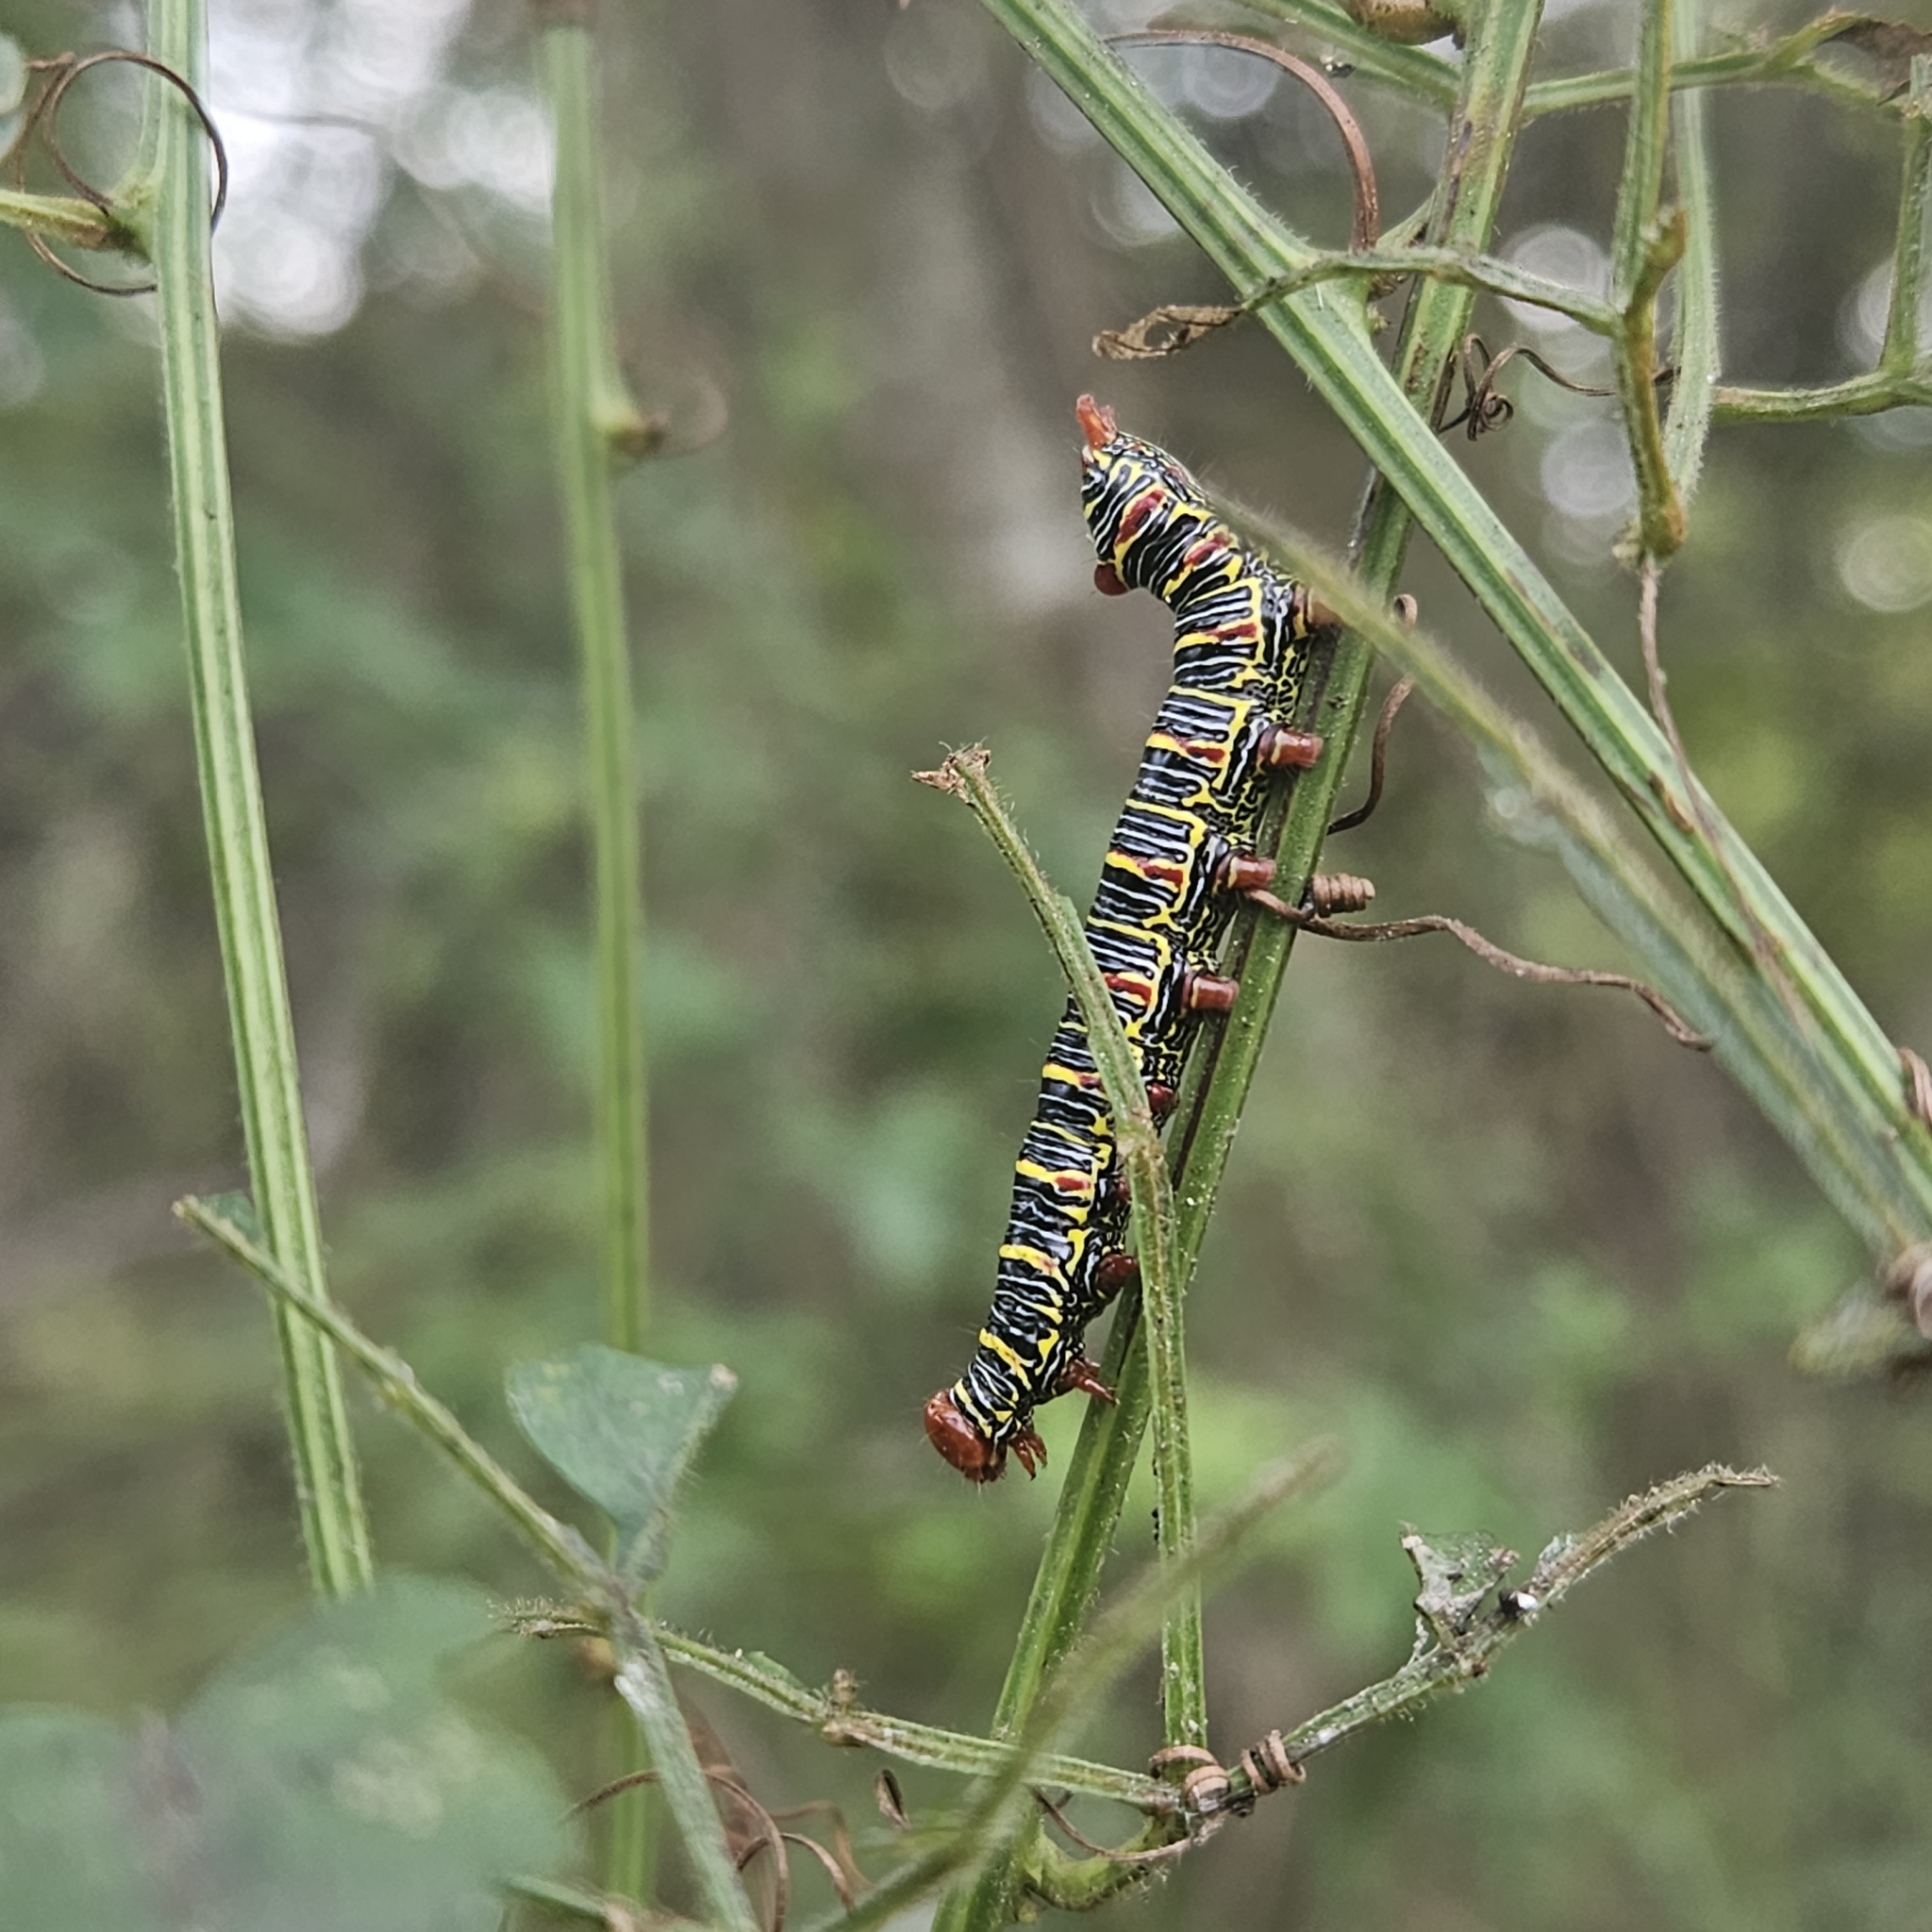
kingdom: Animalia
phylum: Arthropoda
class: Insecta
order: Lepidoptera
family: Notodontidae
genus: Didugua
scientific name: Didugua argentilinea
